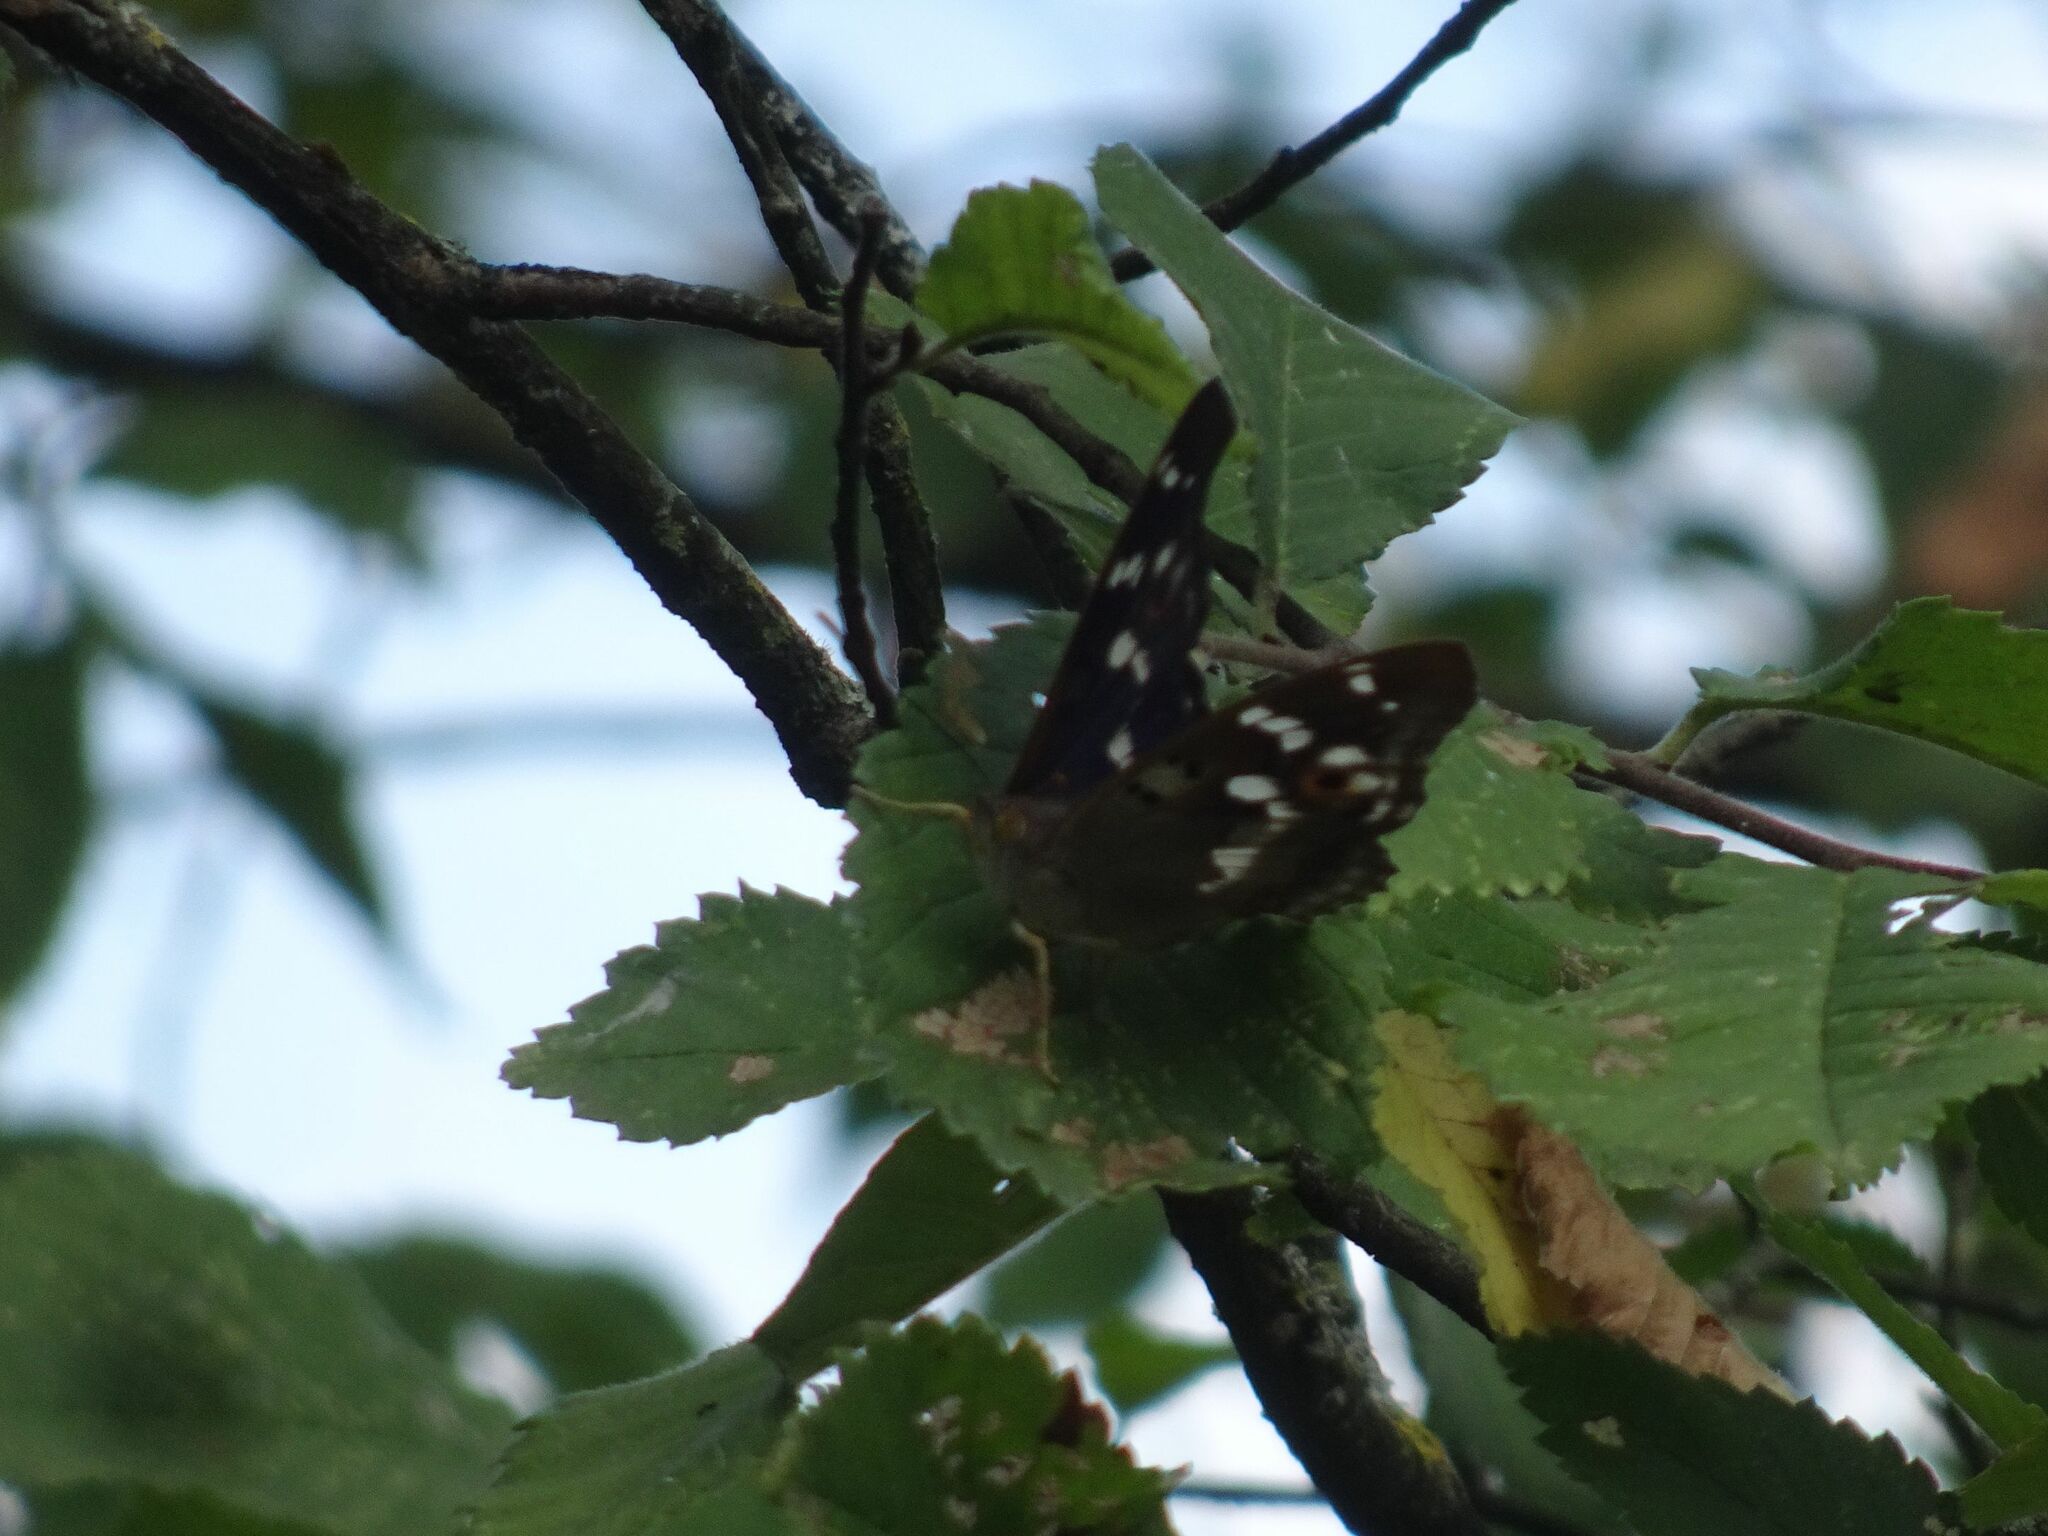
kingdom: Animalia
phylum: Arthropoda
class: Insecta
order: Lepidoptera
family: Nymphalidae
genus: Apatura
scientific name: Apatura ilia
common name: Lesser purple emperor
